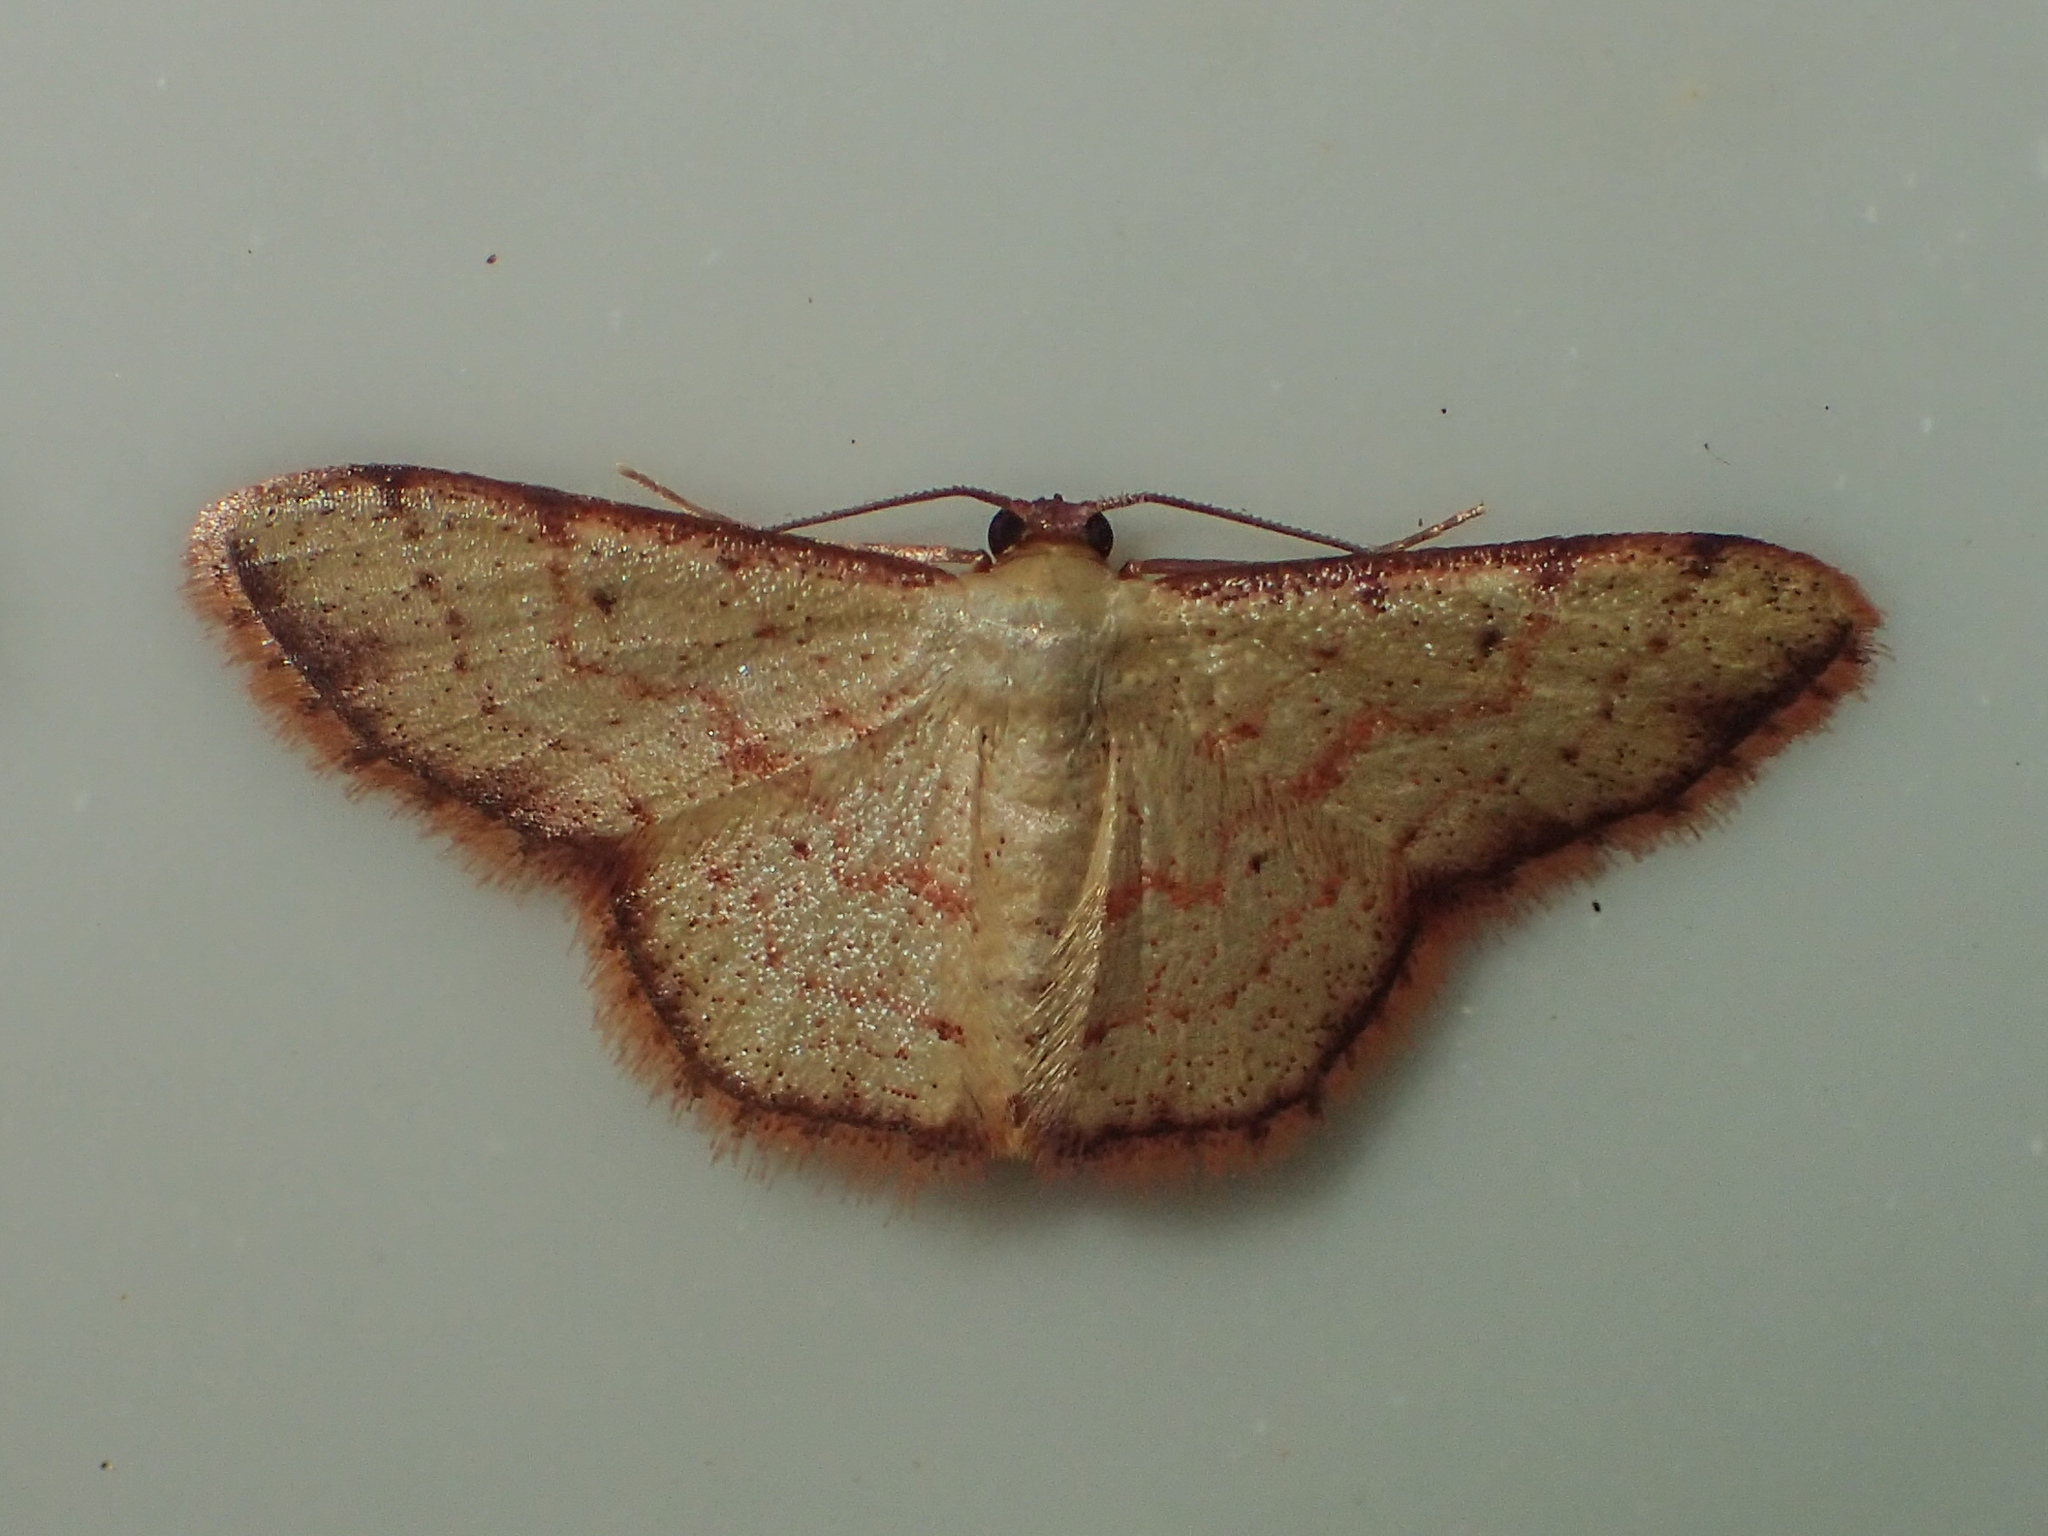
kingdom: Animalia
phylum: Arthropoda
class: Insecta
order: Lepidoptera
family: Geometridae
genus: Idaea
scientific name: Idaea craspedota
